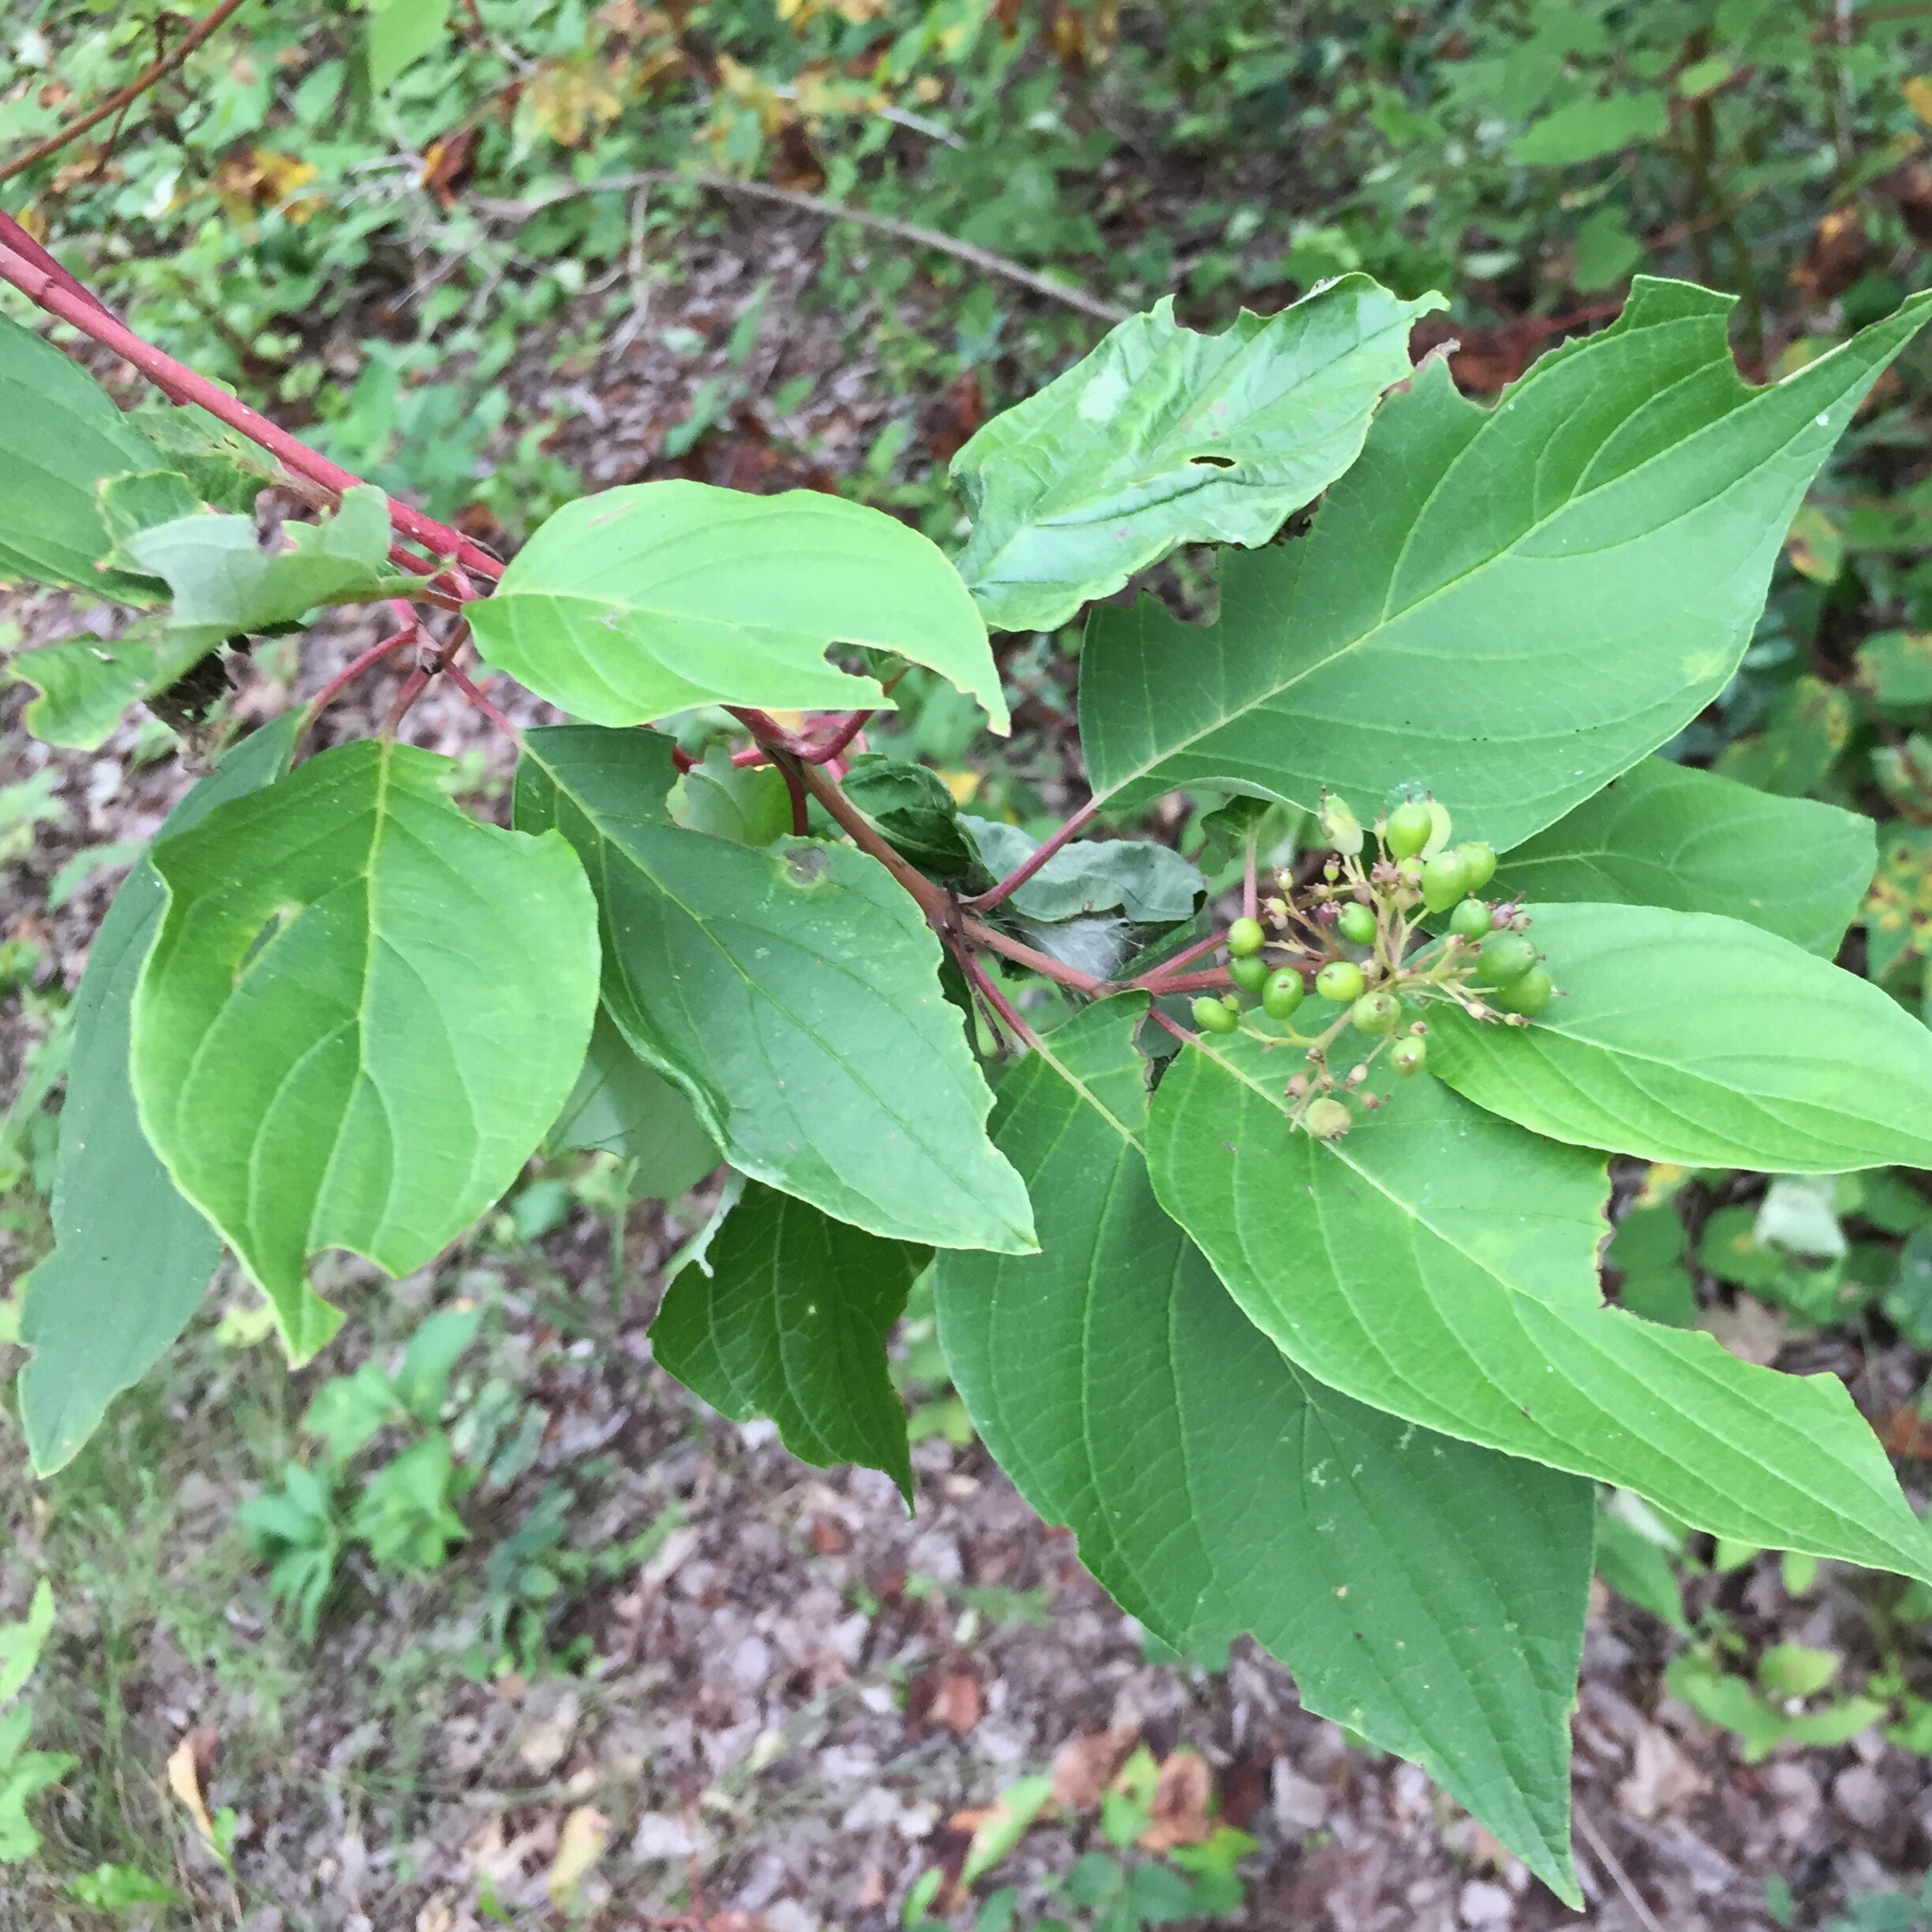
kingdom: Plantae
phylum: Tracheophyta
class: Magnoliopsida
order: Cornales
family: Cornaceae
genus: Cornus
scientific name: Cornus sericea
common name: Red-osier dogwood
